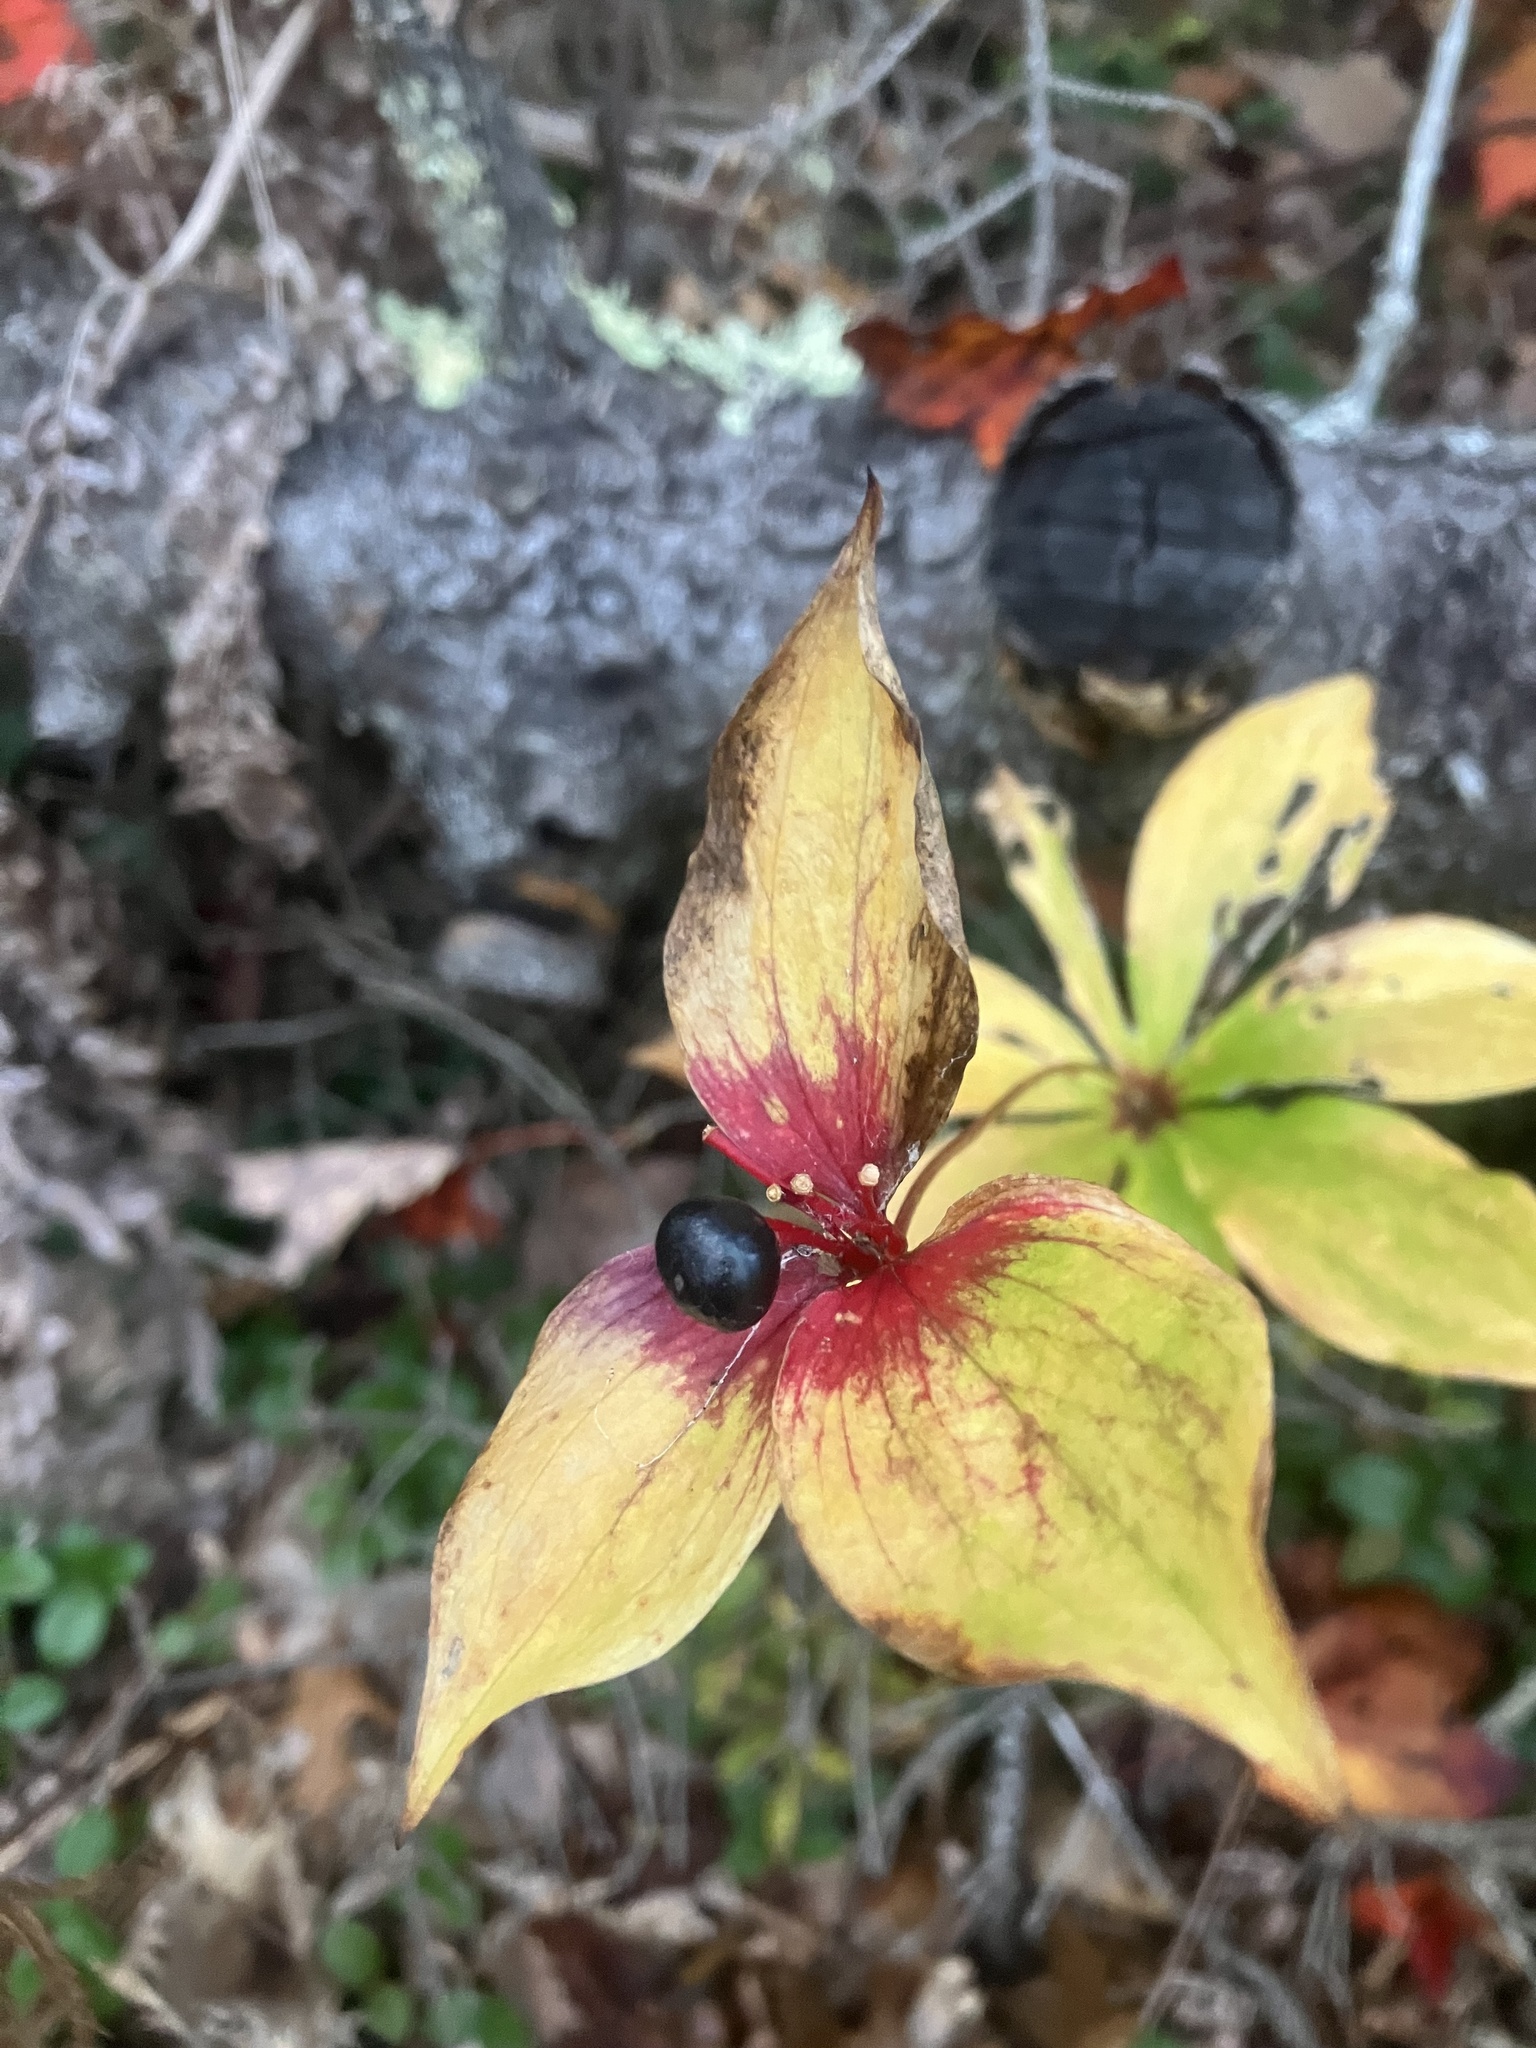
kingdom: Plantae
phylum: Tracheophyta
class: Liliopsida
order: Liliales
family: Liliaceae
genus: Medeola
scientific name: Medeola virginiana
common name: Indian cucumber-root
